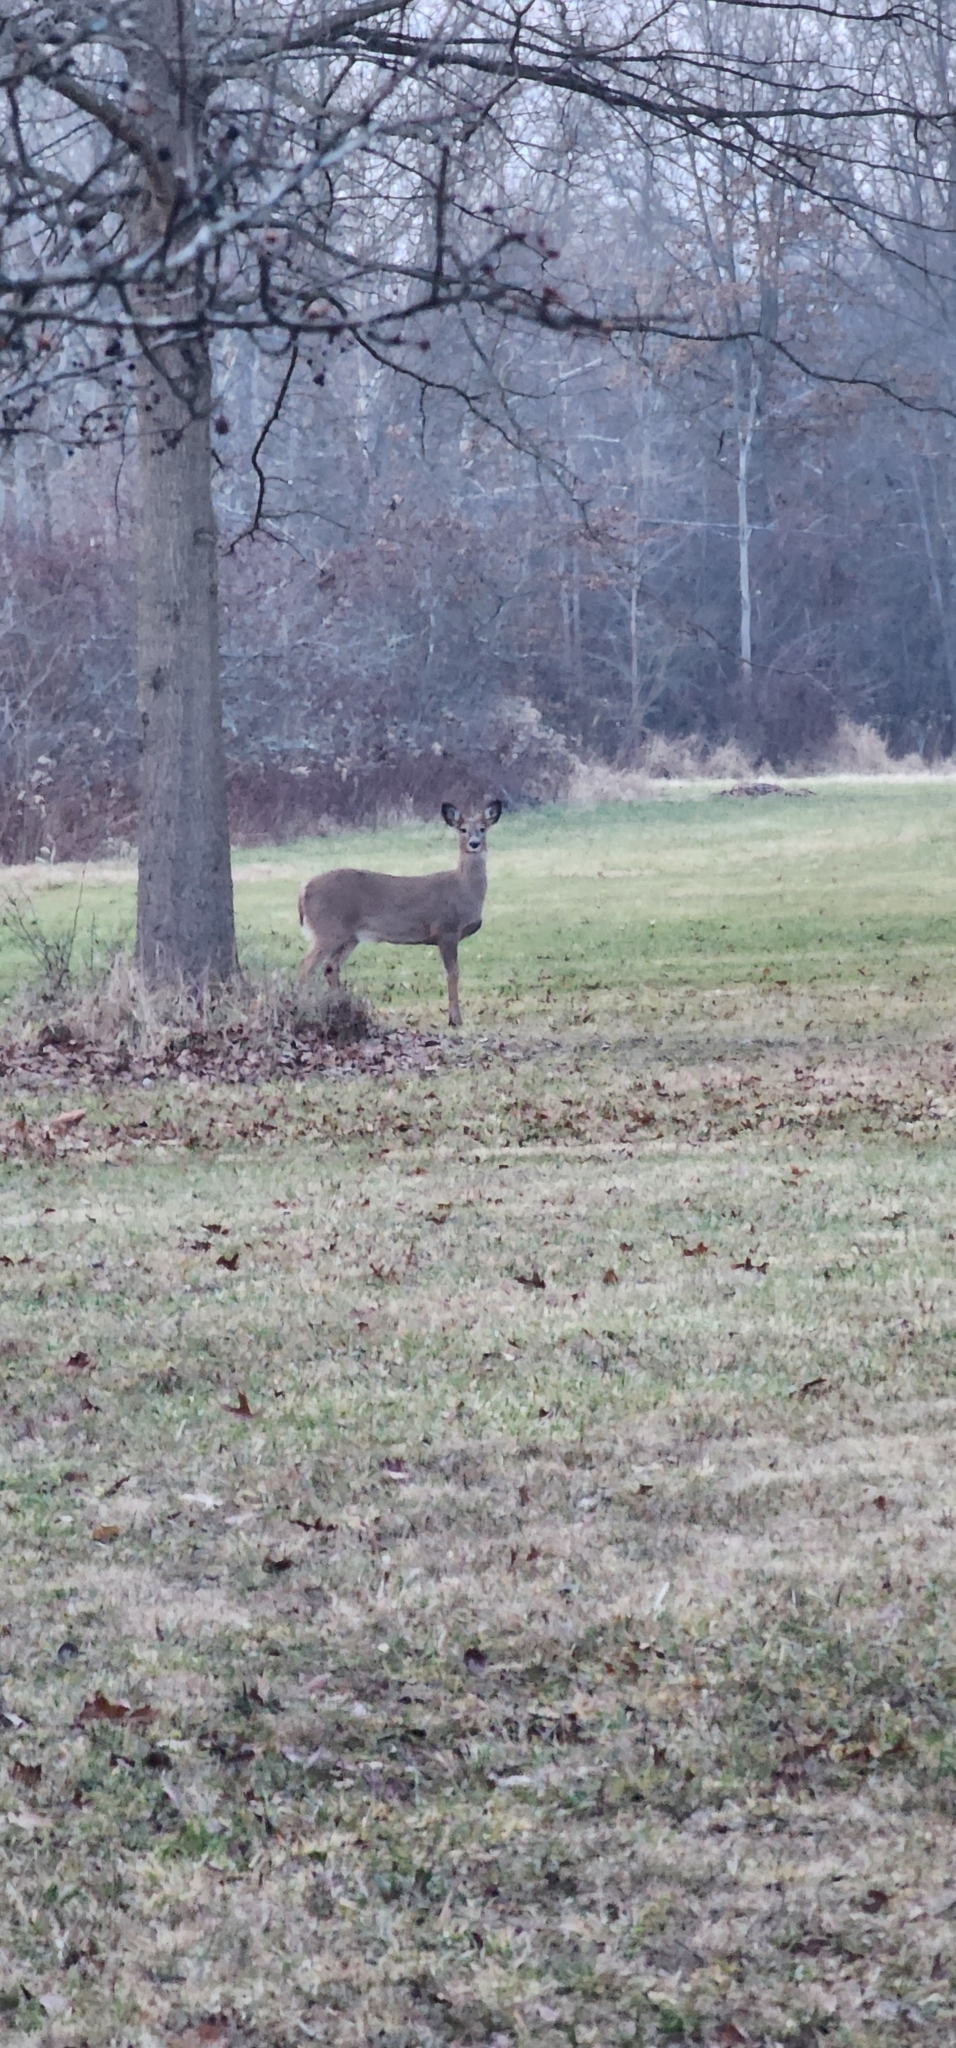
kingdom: Animalia
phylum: Chordata
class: Mammalia
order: Artiodactyla
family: Cervidae
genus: Odocoileus
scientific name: Odocoileus virginianus
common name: White-tailed deer
